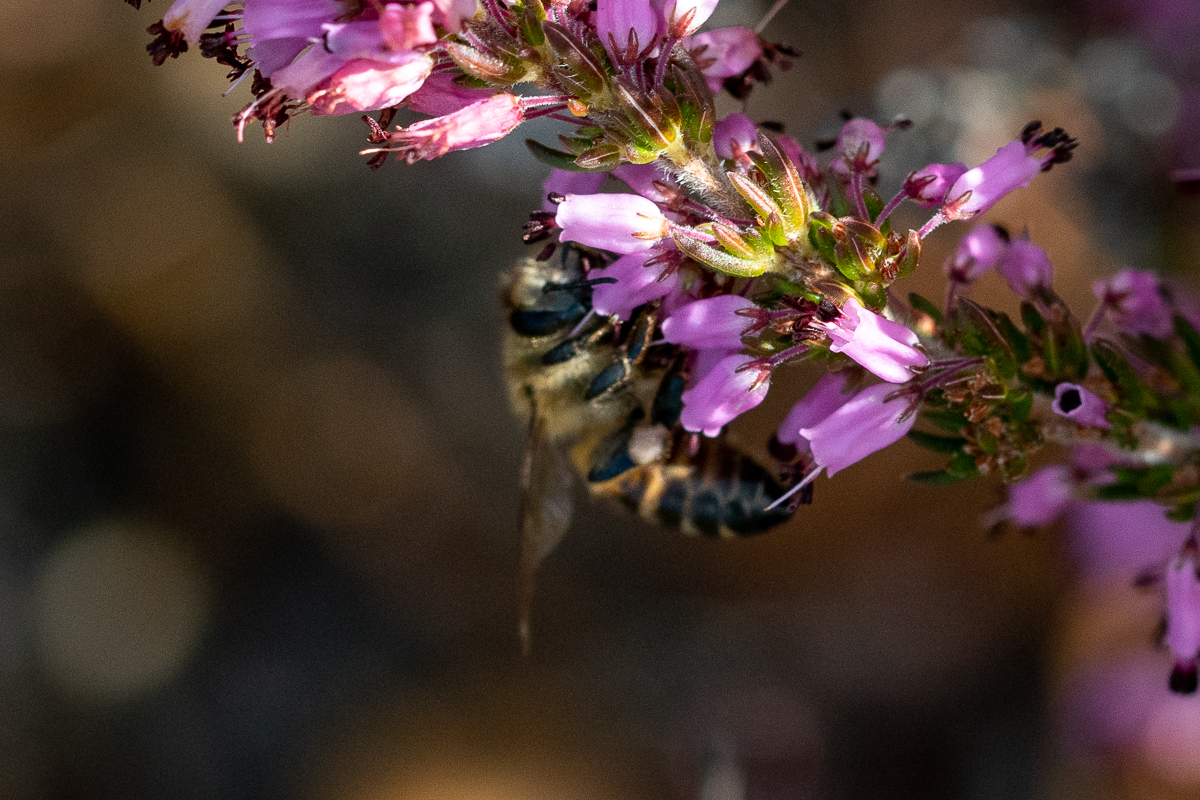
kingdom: Animalia
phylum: Arthropoda
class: Insecta
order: Hymenoptera
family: Apidae
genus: Apis
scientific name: Apis mellifera
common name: Honey bee
